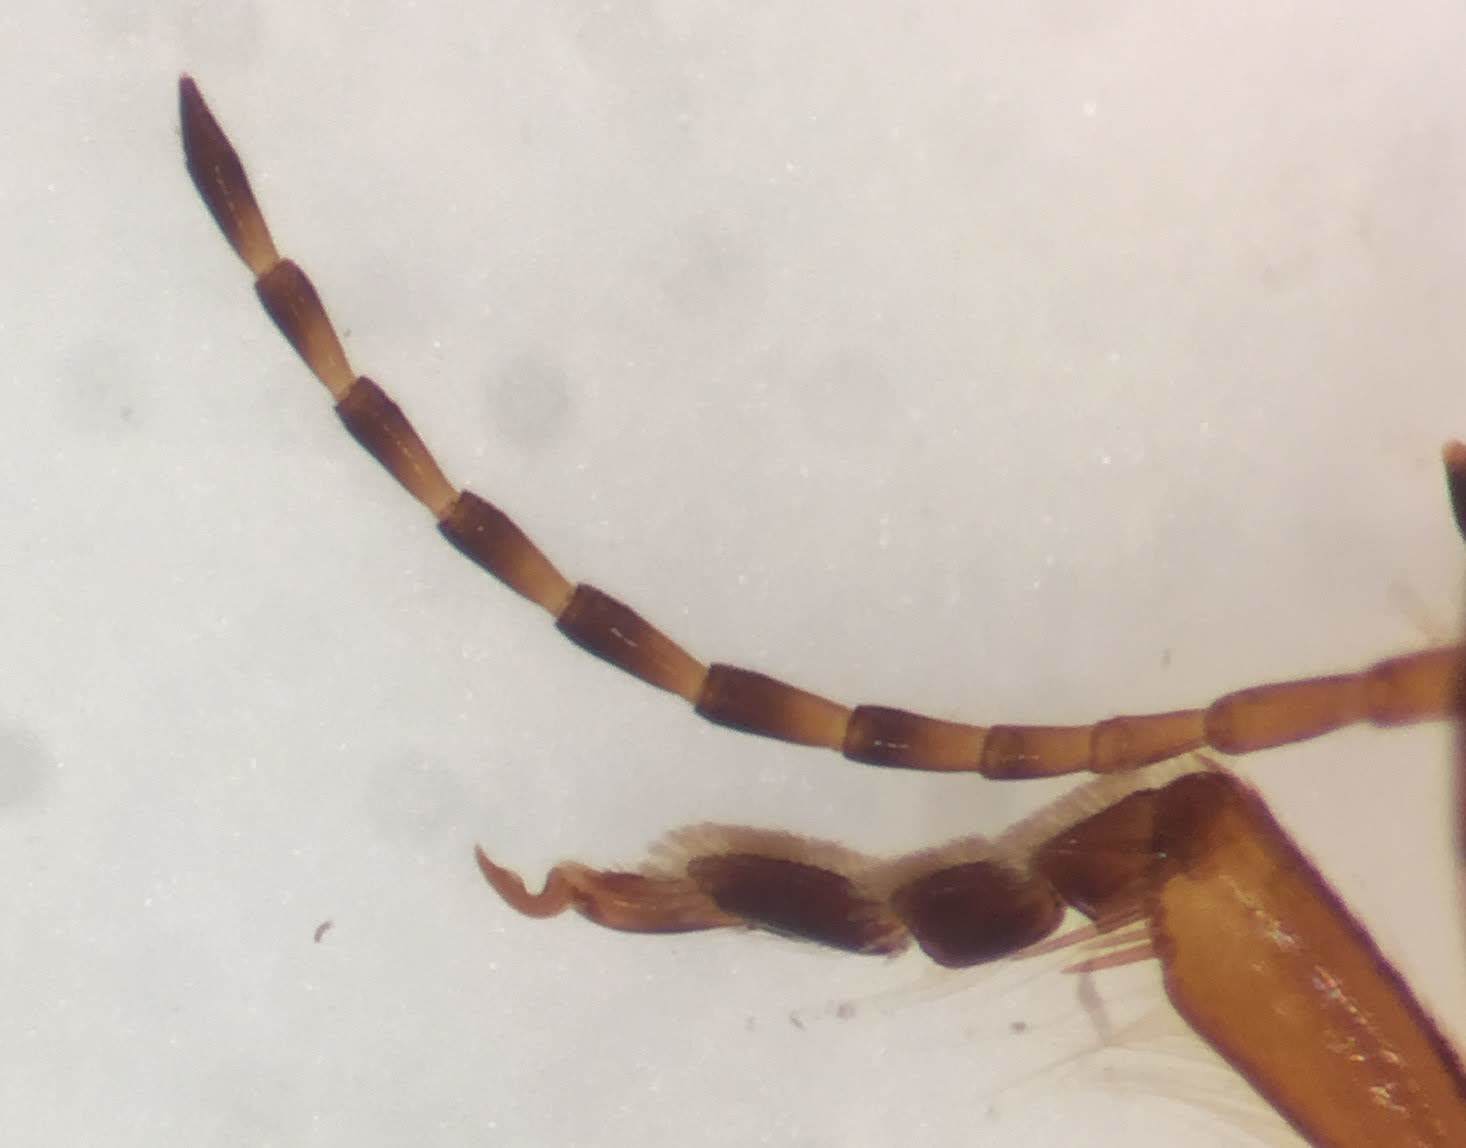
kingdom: Animalia
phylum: Arthropoda
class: Insecta
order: Coleoptera
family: Dytiscidae
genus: Hydroporus
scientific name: Hydroporus pseudoniger
